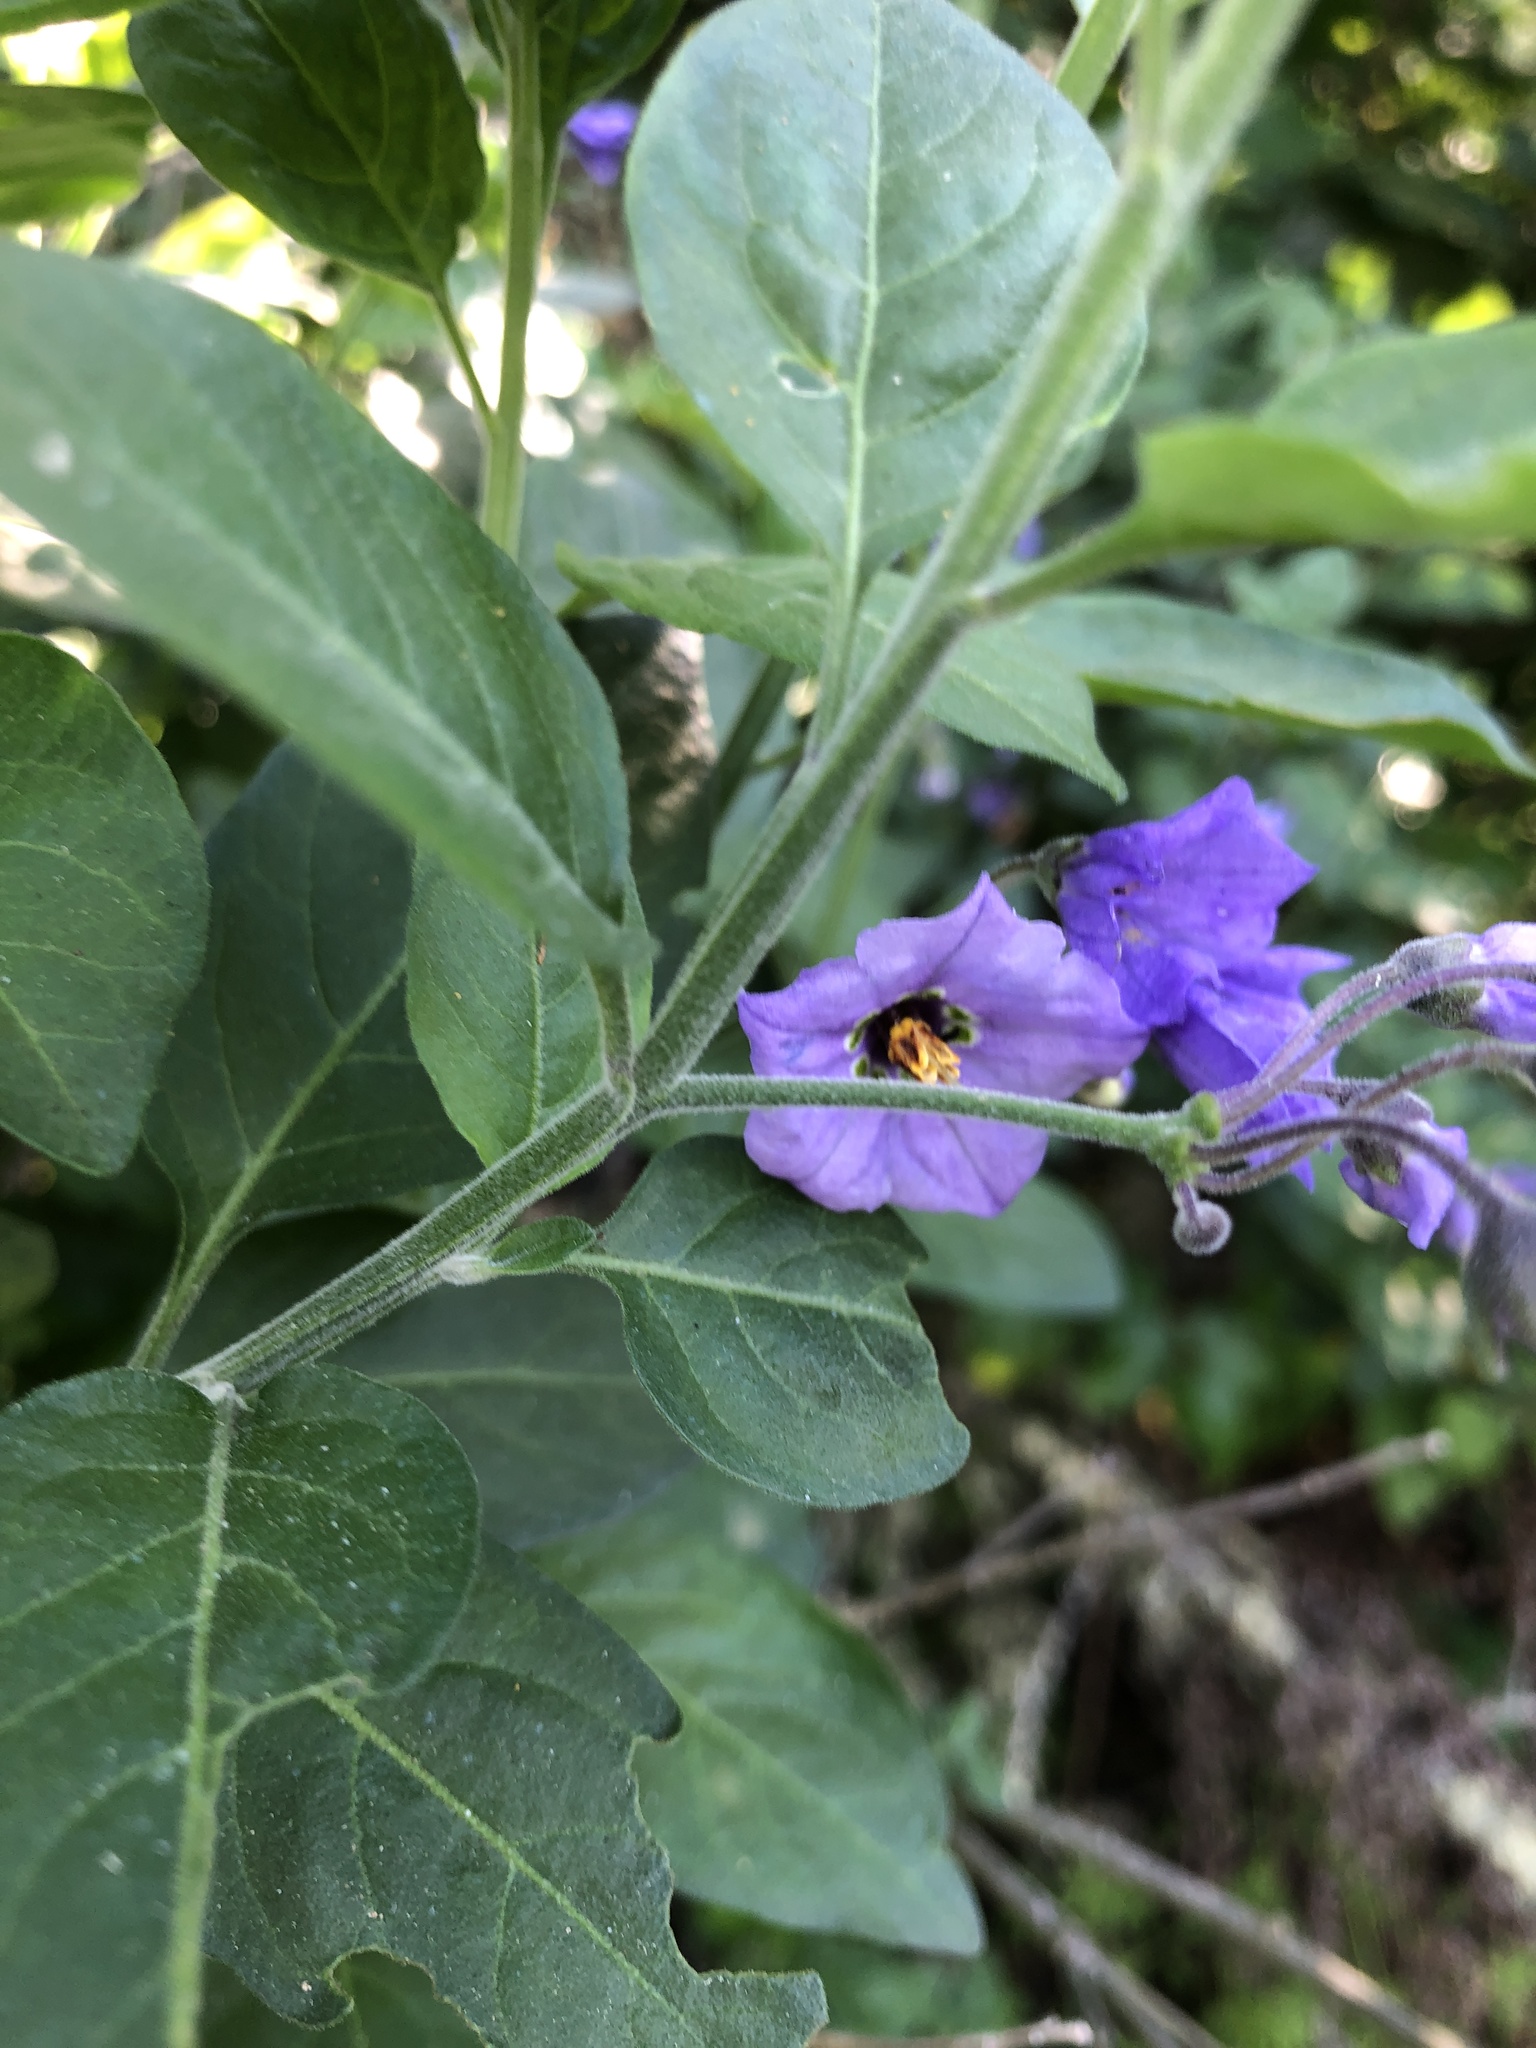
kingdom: Plantae
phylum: Tracheophyta
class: Magnoliopsida
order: Solanales
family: Solanaceae
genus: Solanum
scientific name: Solanum umbelliferum
